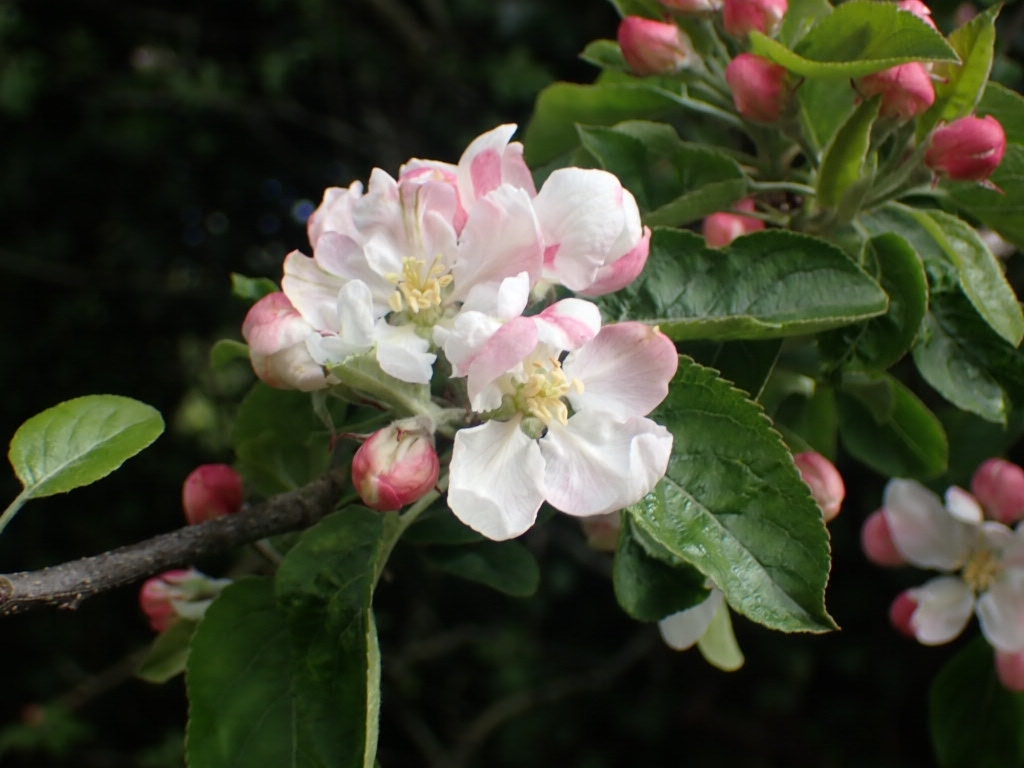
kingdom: Plantae
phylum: Tracheophyta
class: Magnoliopsida
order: Rosales
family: Rosaceae
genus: Malus
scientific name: Malus domestica
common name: Apple
